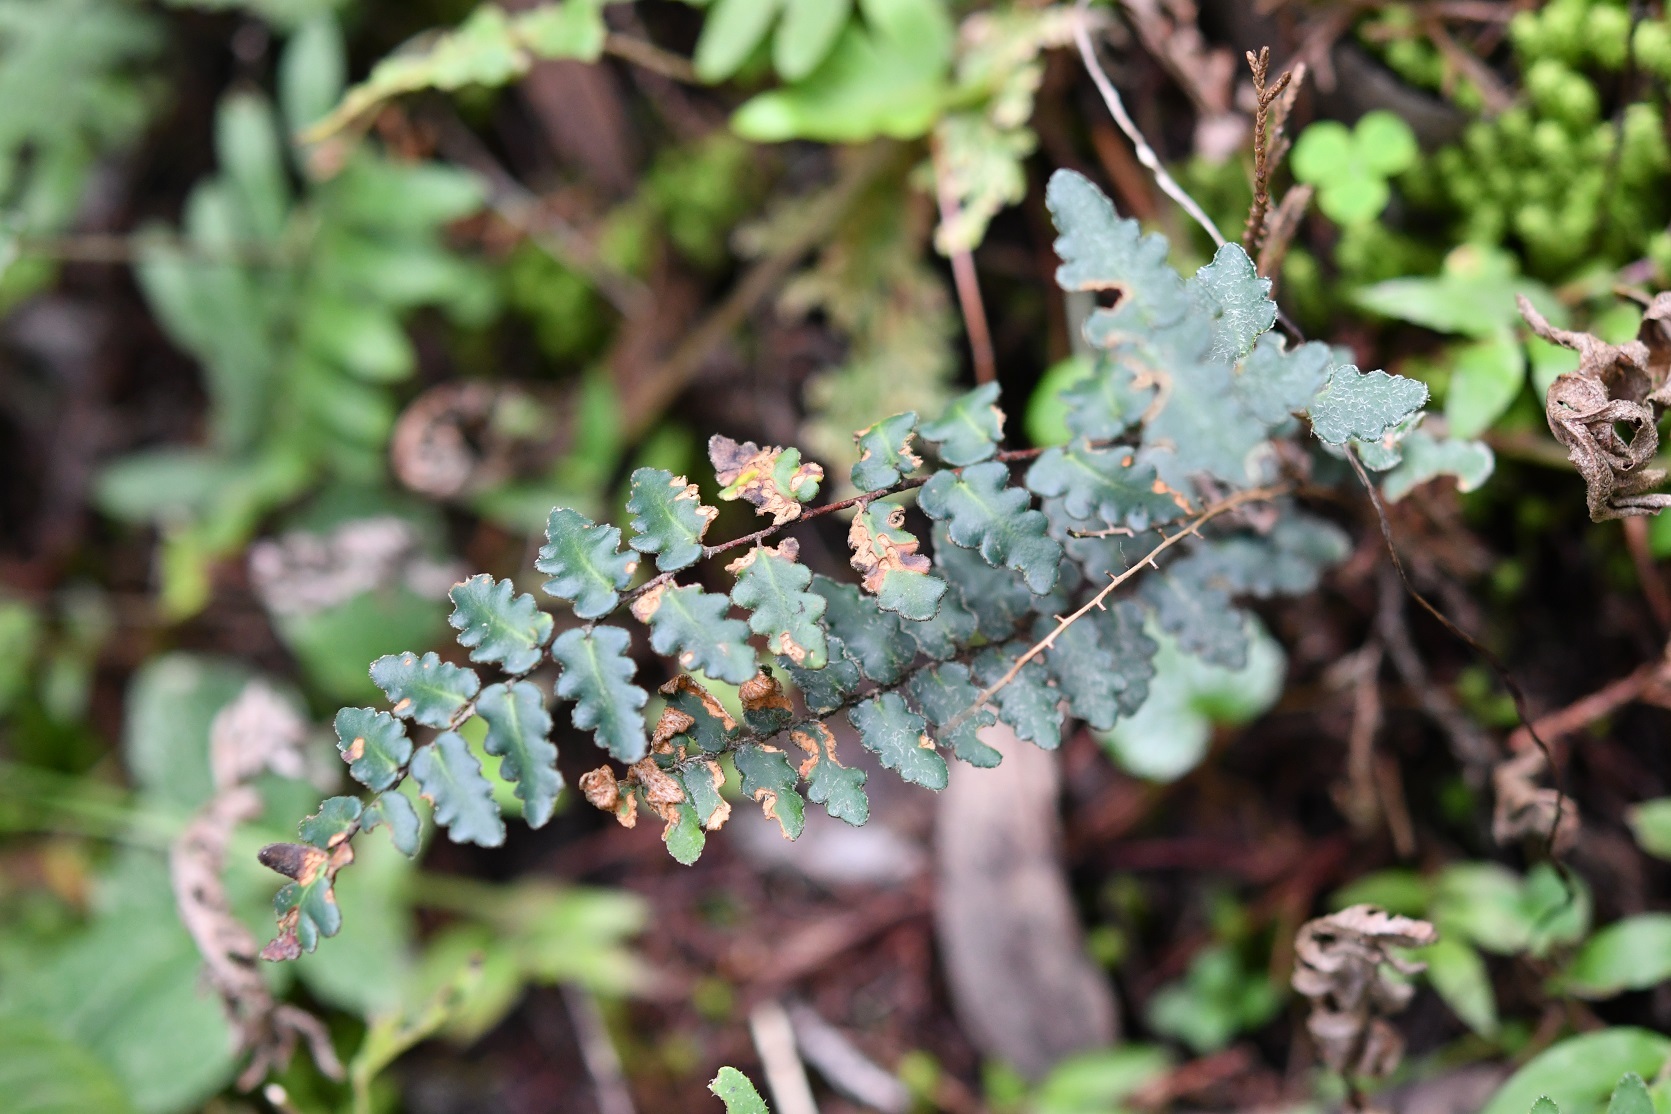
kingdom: Plantae
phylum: Tracheophyta
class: Polypodiopsida
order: Polypodiales
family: Pteridaceae
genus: Astrolepis
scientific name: Astrolepis sinuata
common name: Wavy scaly cloakfern
